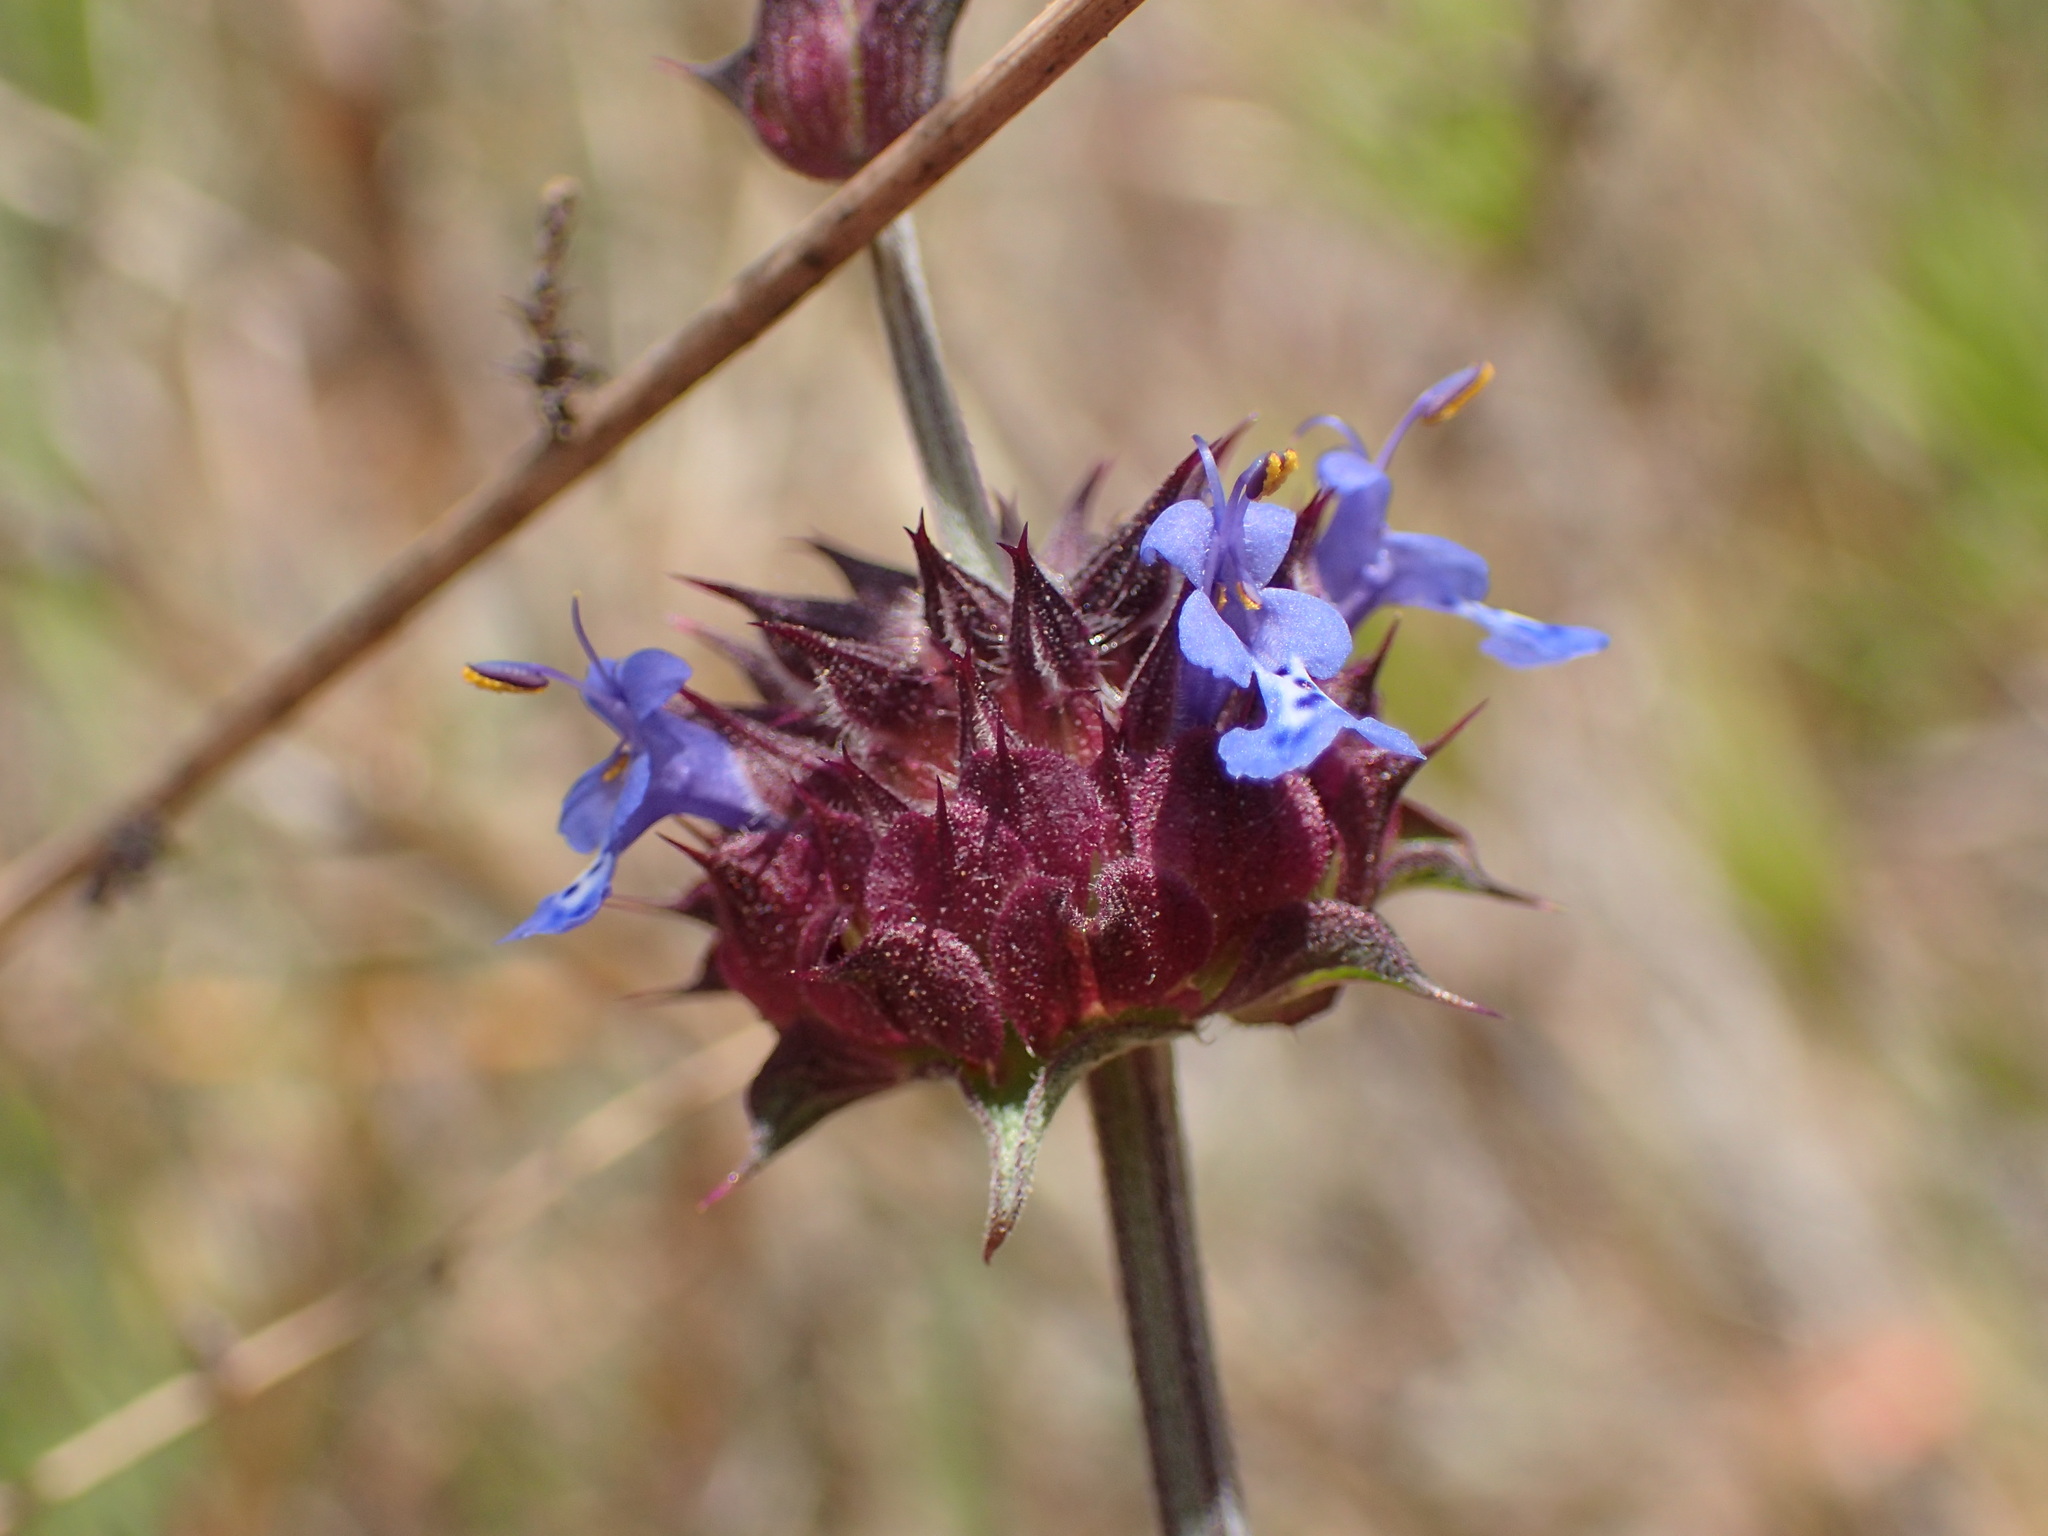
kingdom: Plantae
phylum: Tracheophyta
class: Magnoliopsida
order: Lamiales
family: Lamiaceae
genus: Salvia
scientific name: Salvia columbariae
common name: Chia
